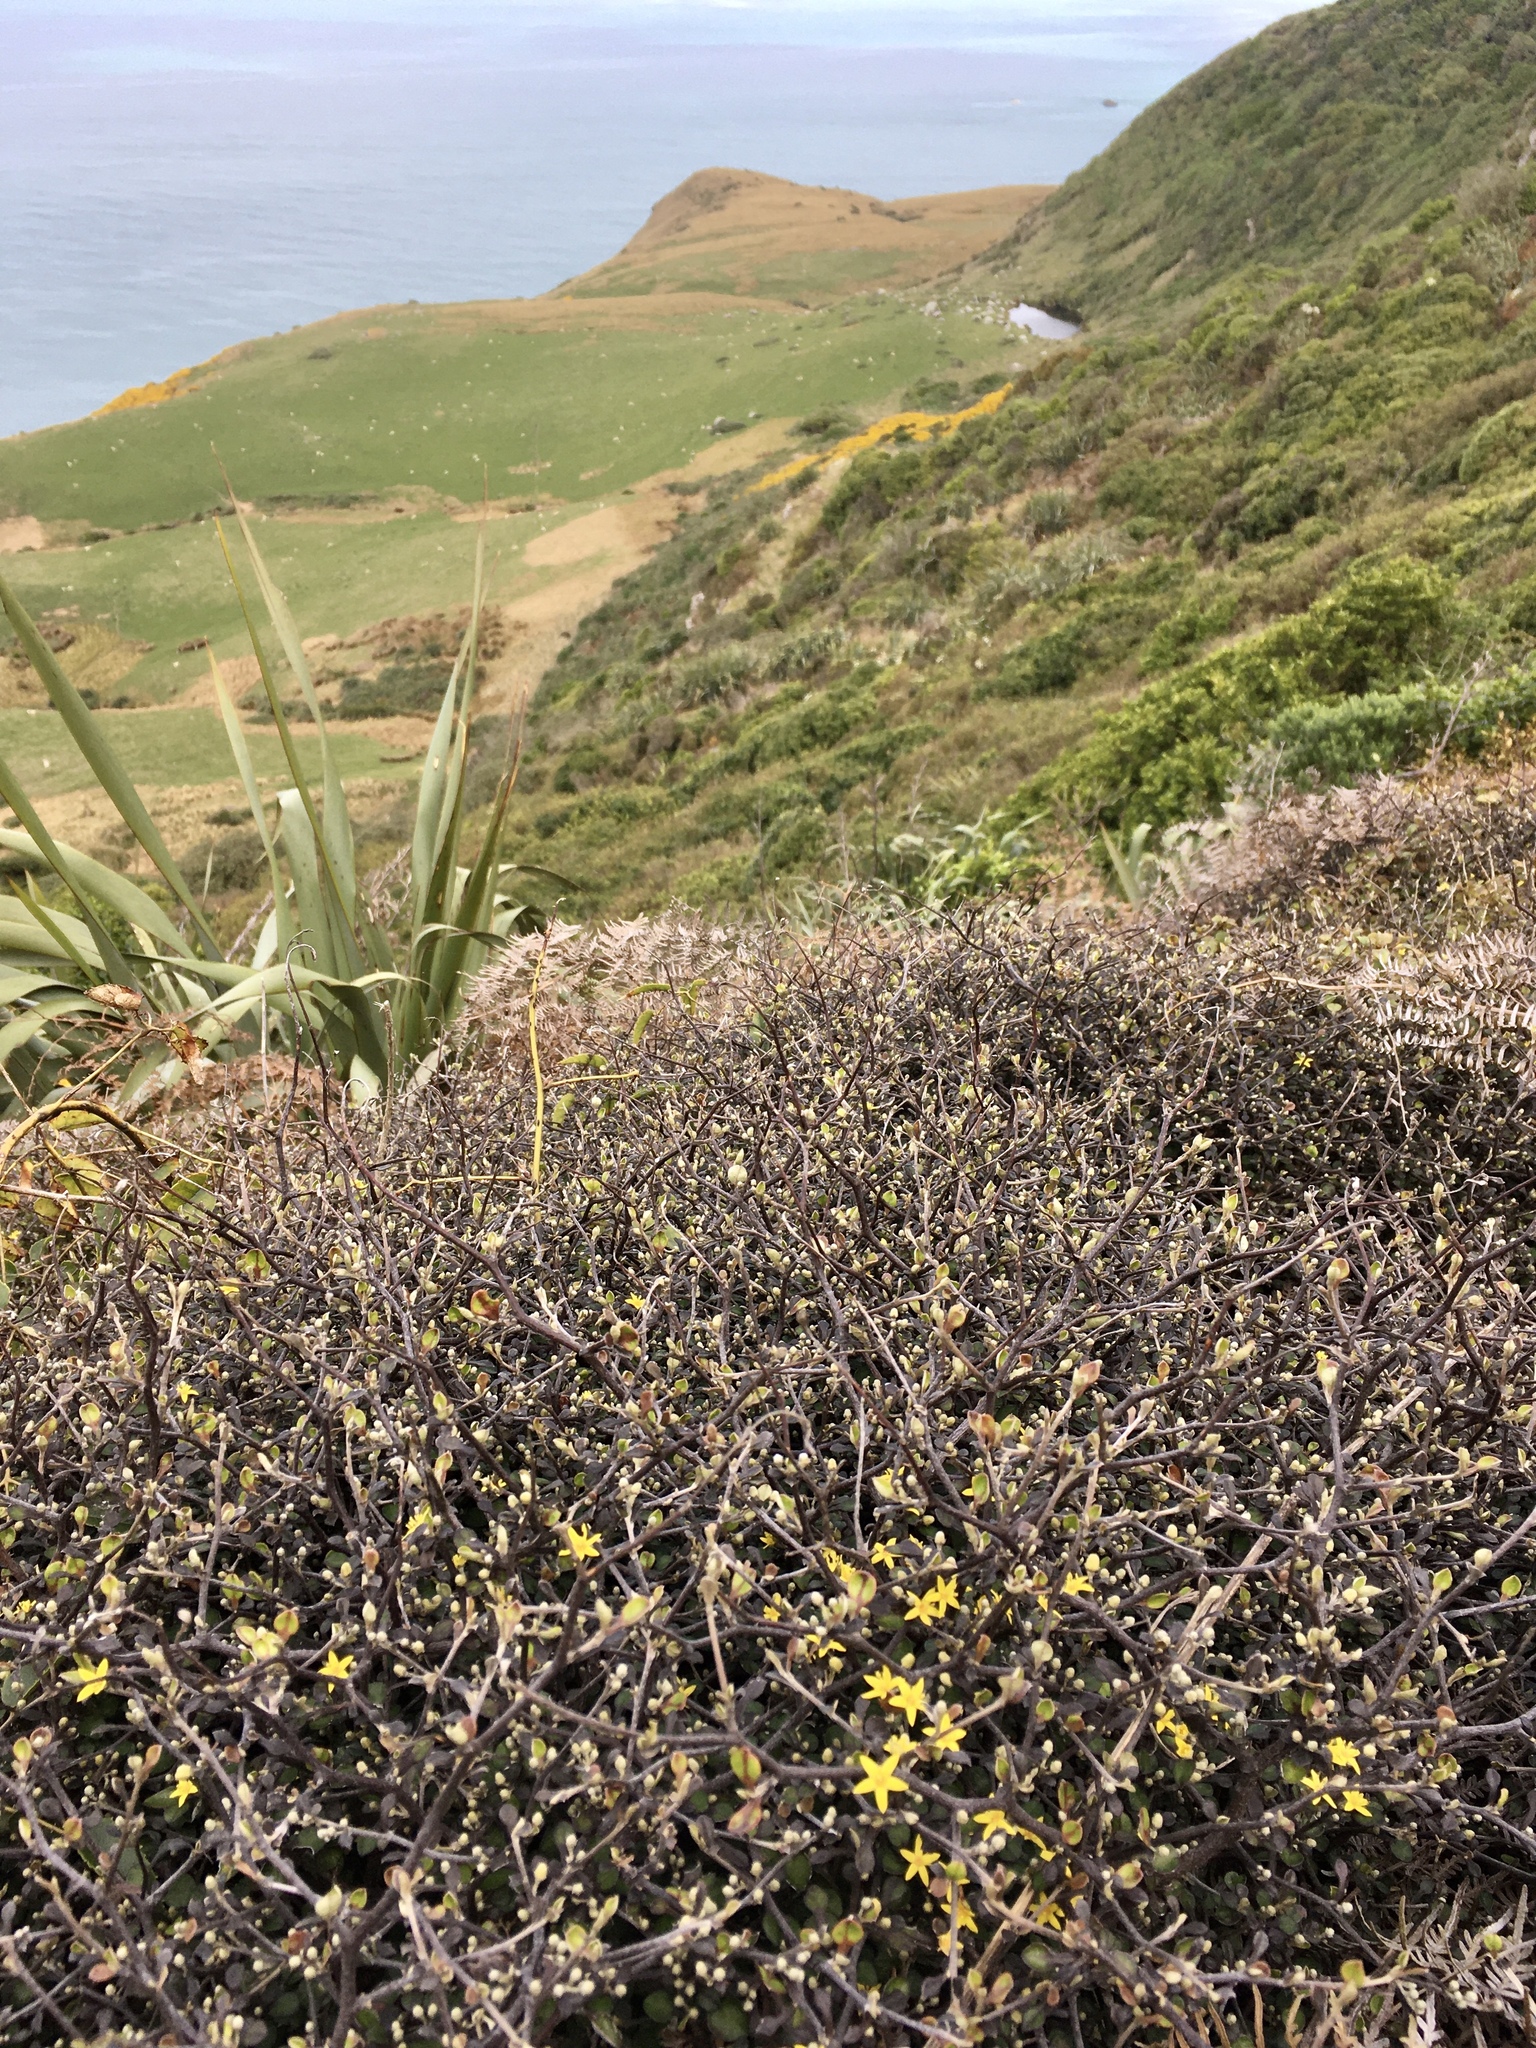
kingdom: Plantae
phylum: Tracheophyta
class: Magnoliopsida
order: Asterales
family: Argophyllaceae
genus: Corokia
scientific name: Corokia cotoneaster
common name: Wire nettingbush
